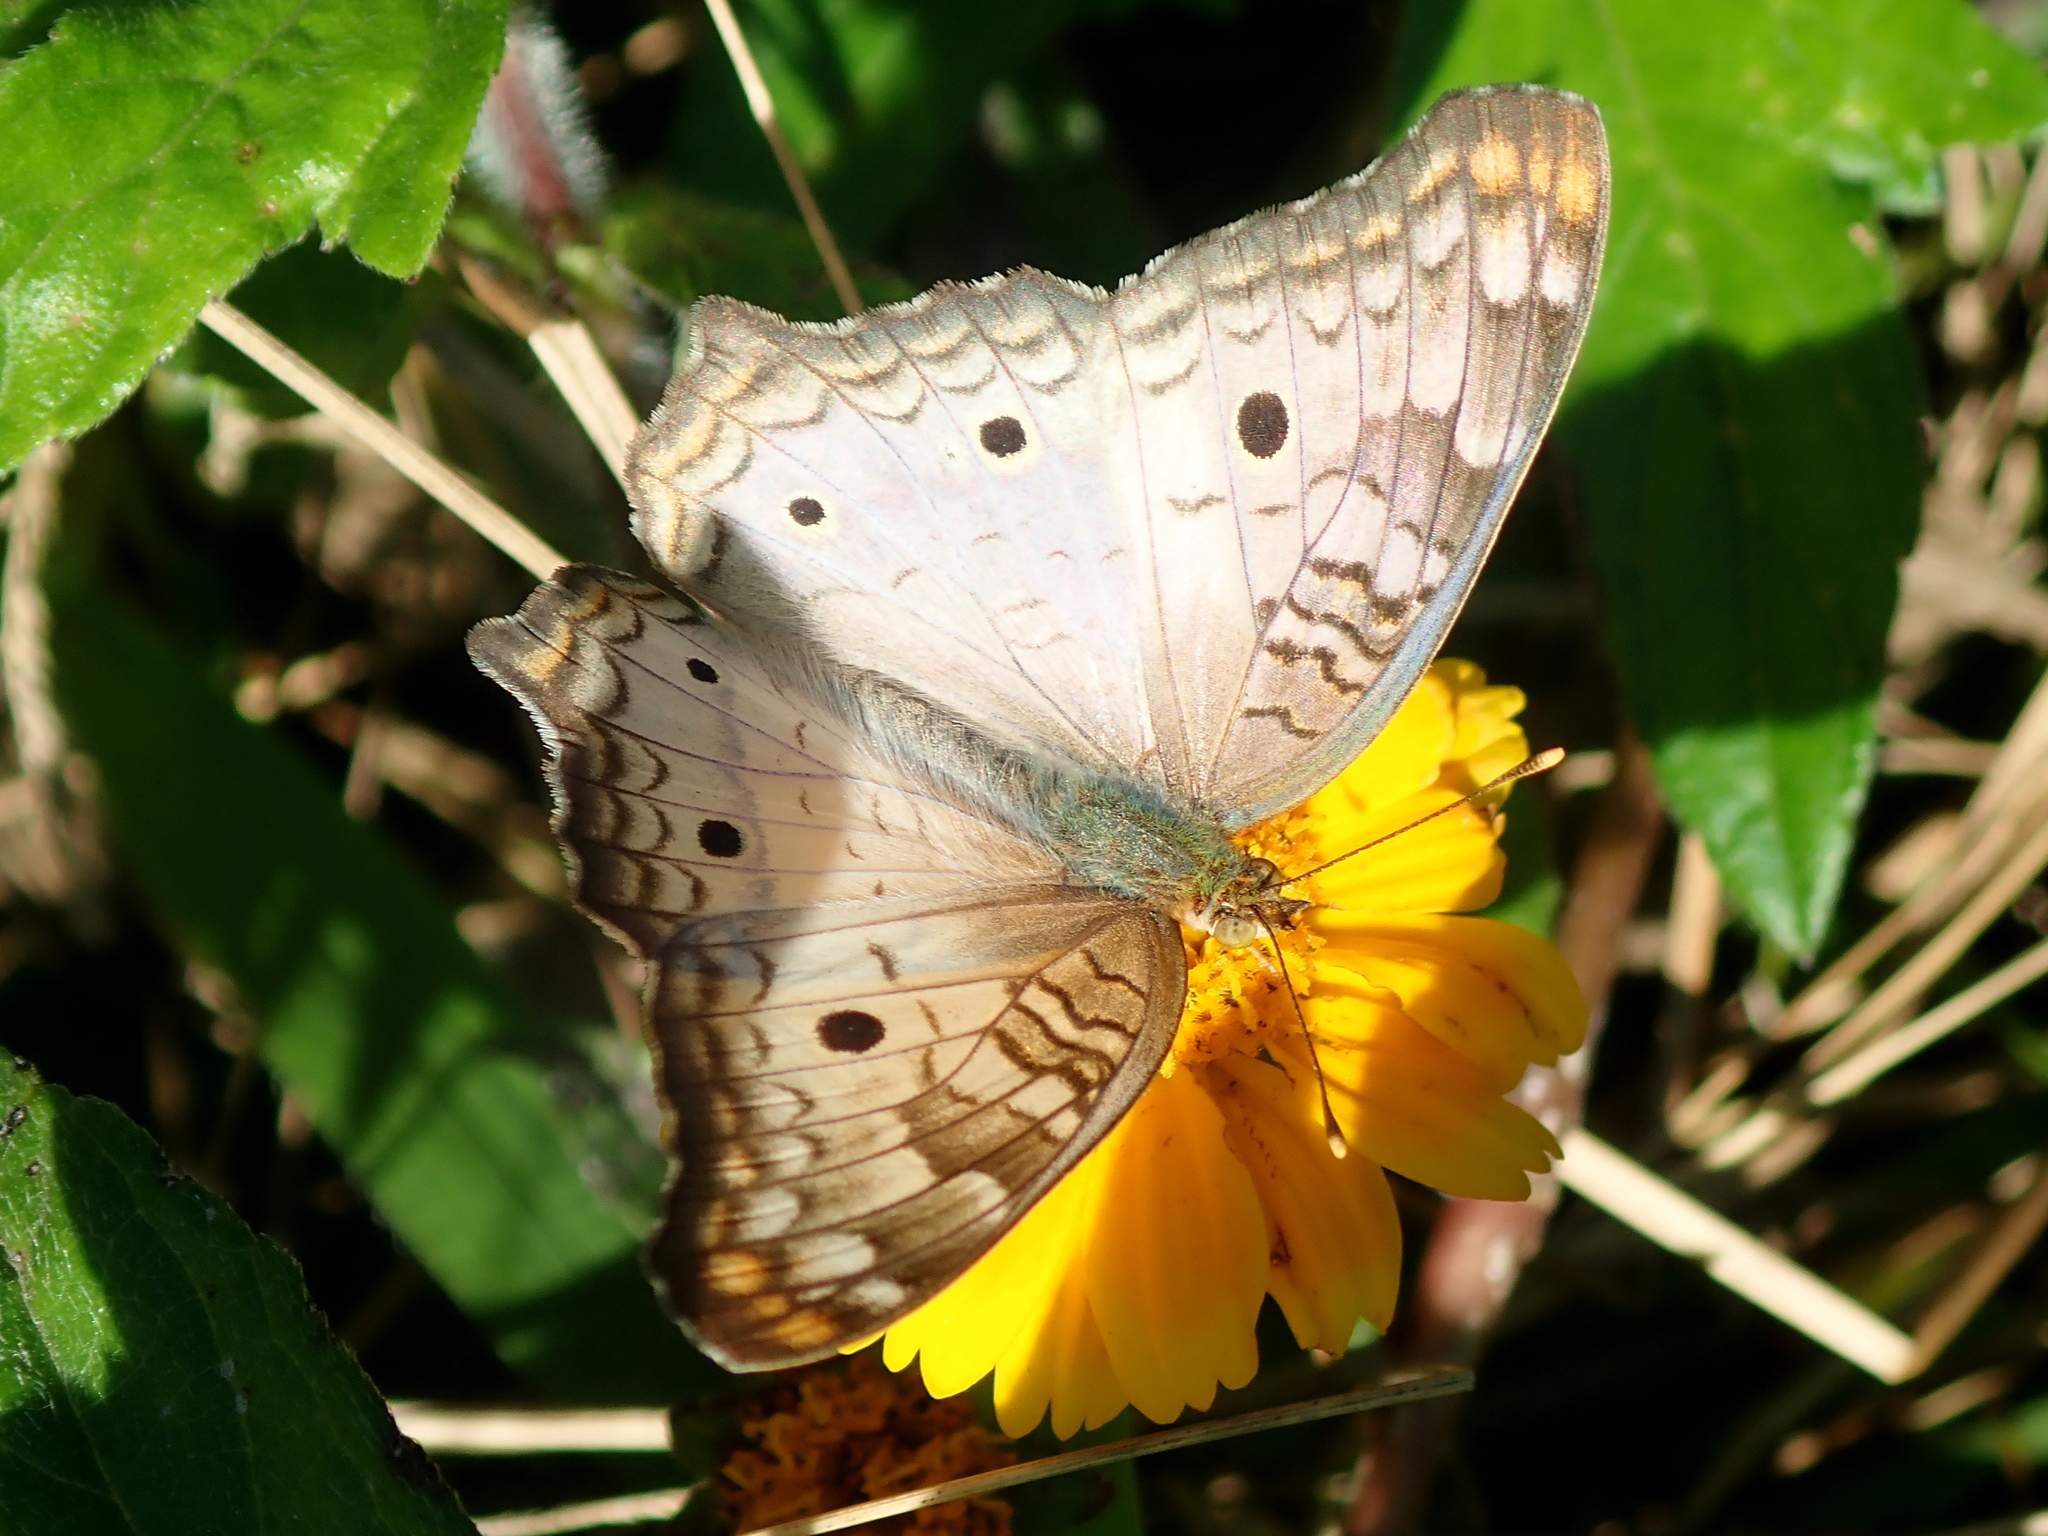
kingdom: Animalia
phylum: Arthropoda
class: Insecta
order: Lepidoptera
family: Nymphalidae
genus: Anartia
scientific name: Anartia jatrophae
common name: White peacock
